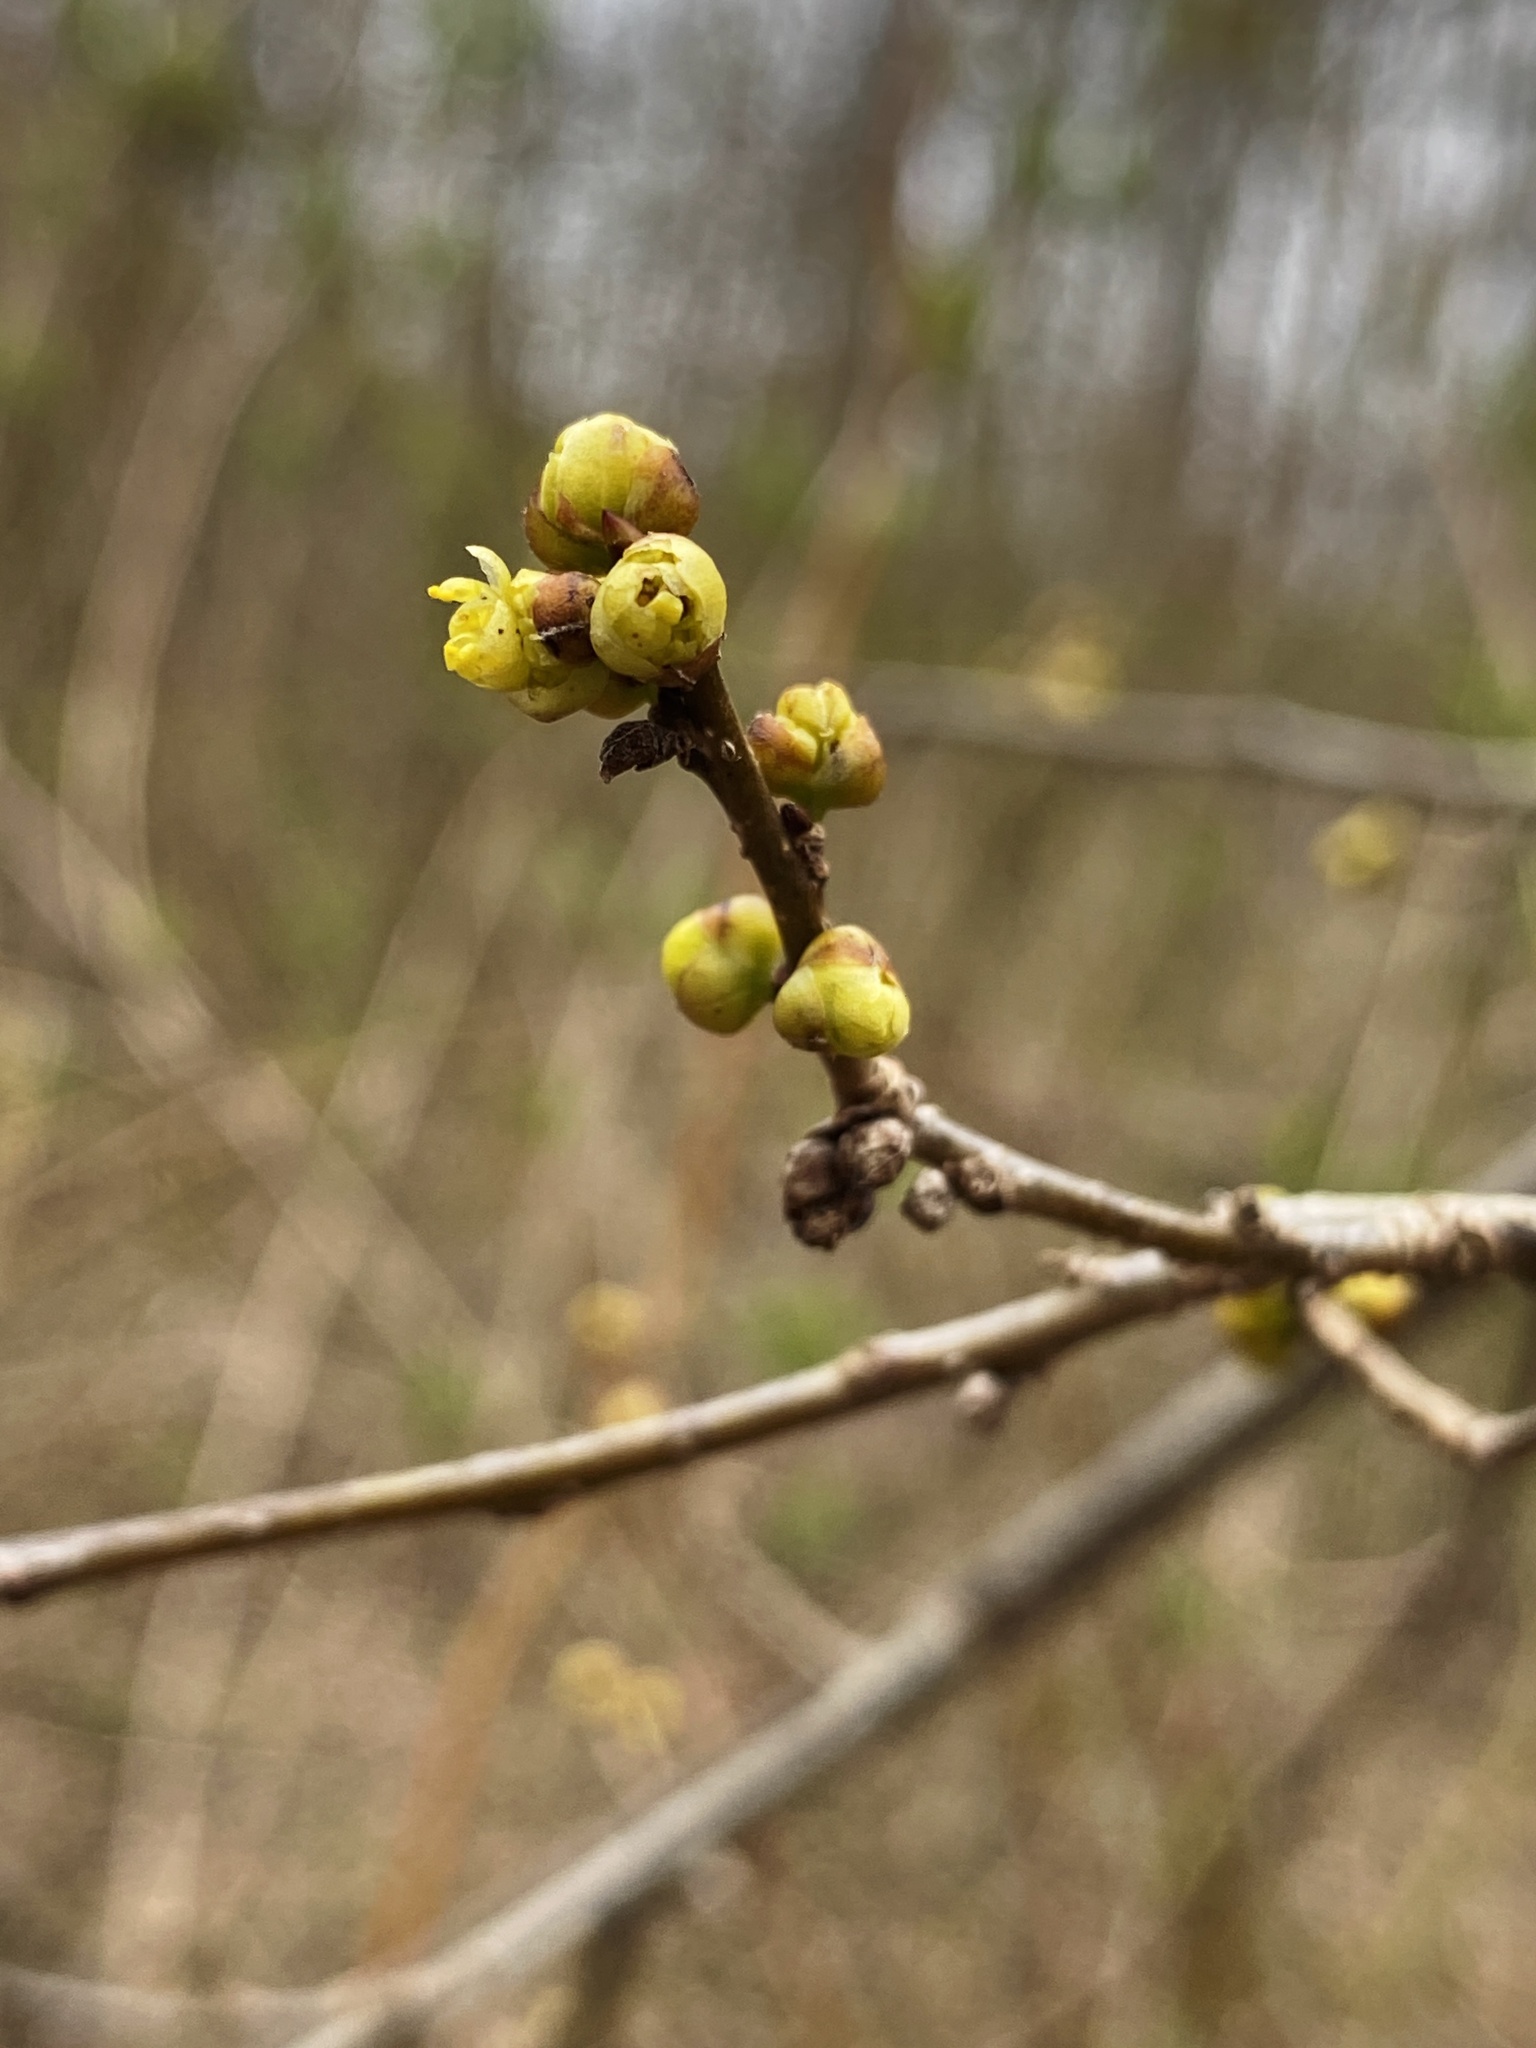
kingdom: Plantae
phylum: Tracheophyta
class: Magnoliopsida
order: Laurales
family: Lauraceae
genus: Lindera
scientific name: Lindera benzoin
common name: Spicebush
